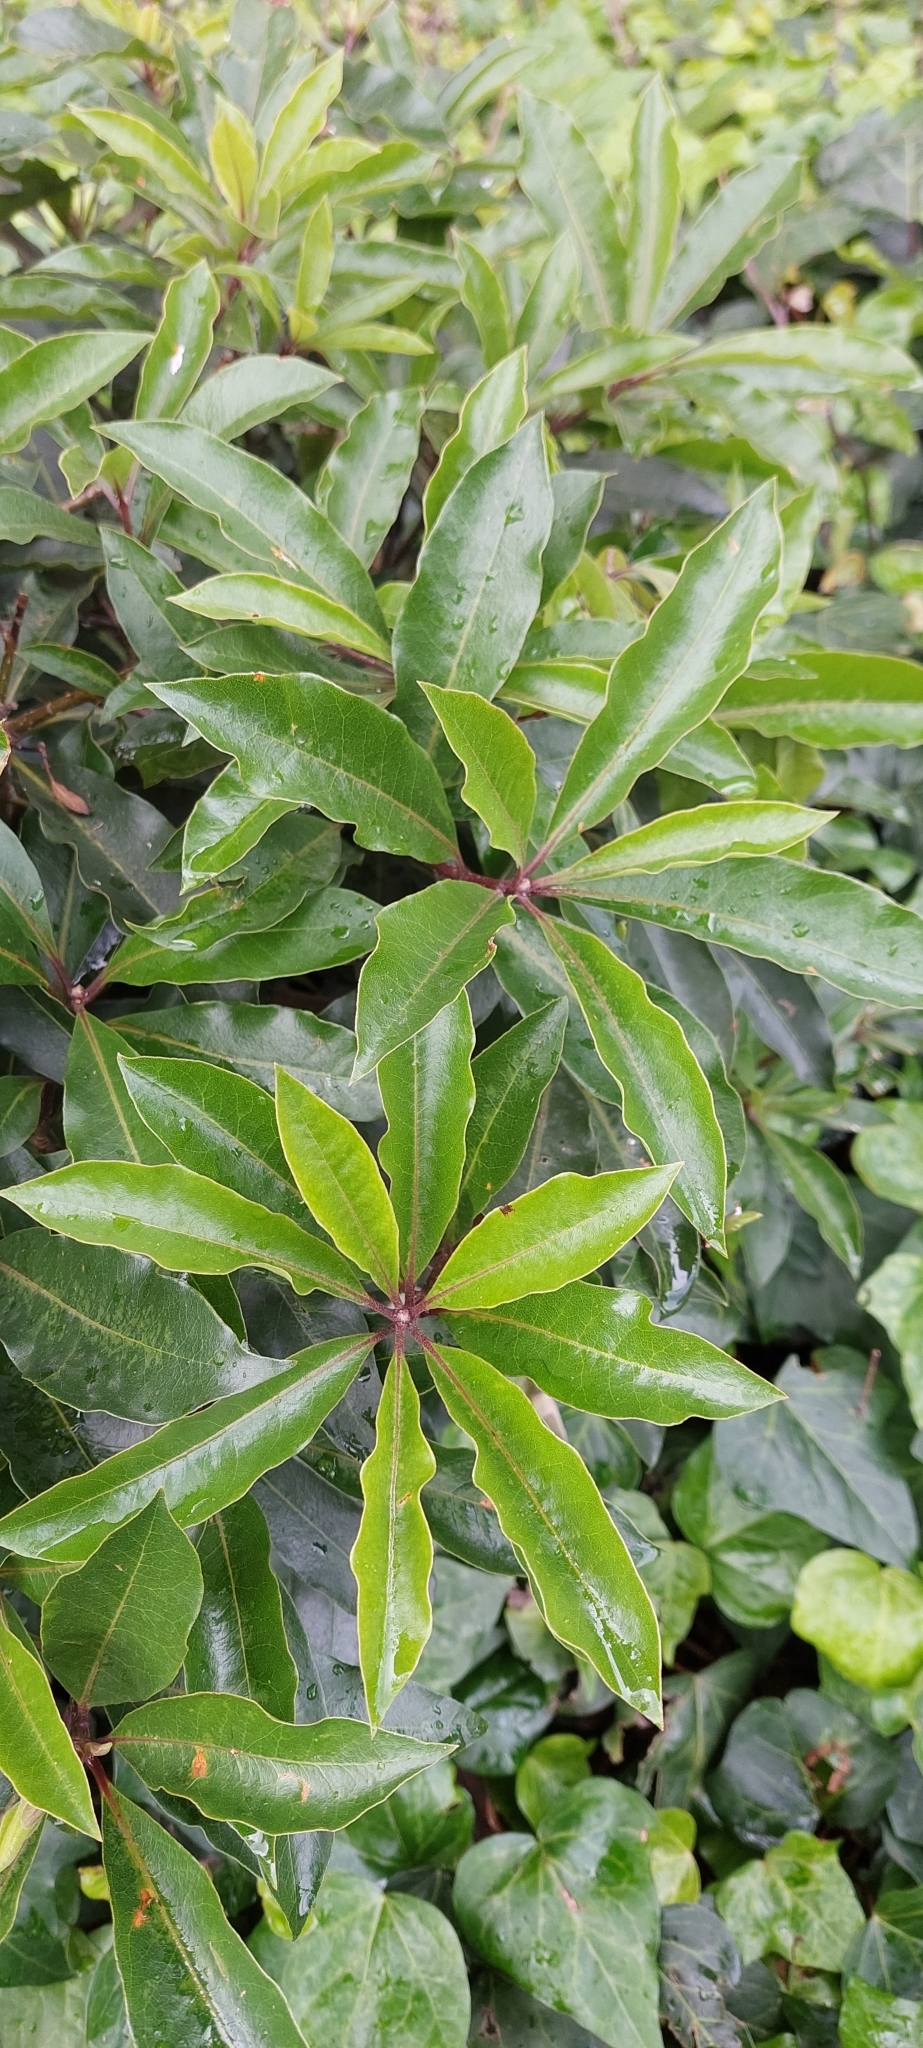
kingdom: Plantae
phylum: Tracheophyta
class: Magnoliopsida
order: Apiales
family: Pittosporaceae
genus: Pittosporum
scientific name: Pittosporum undulatum
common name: Australian cheesewood
